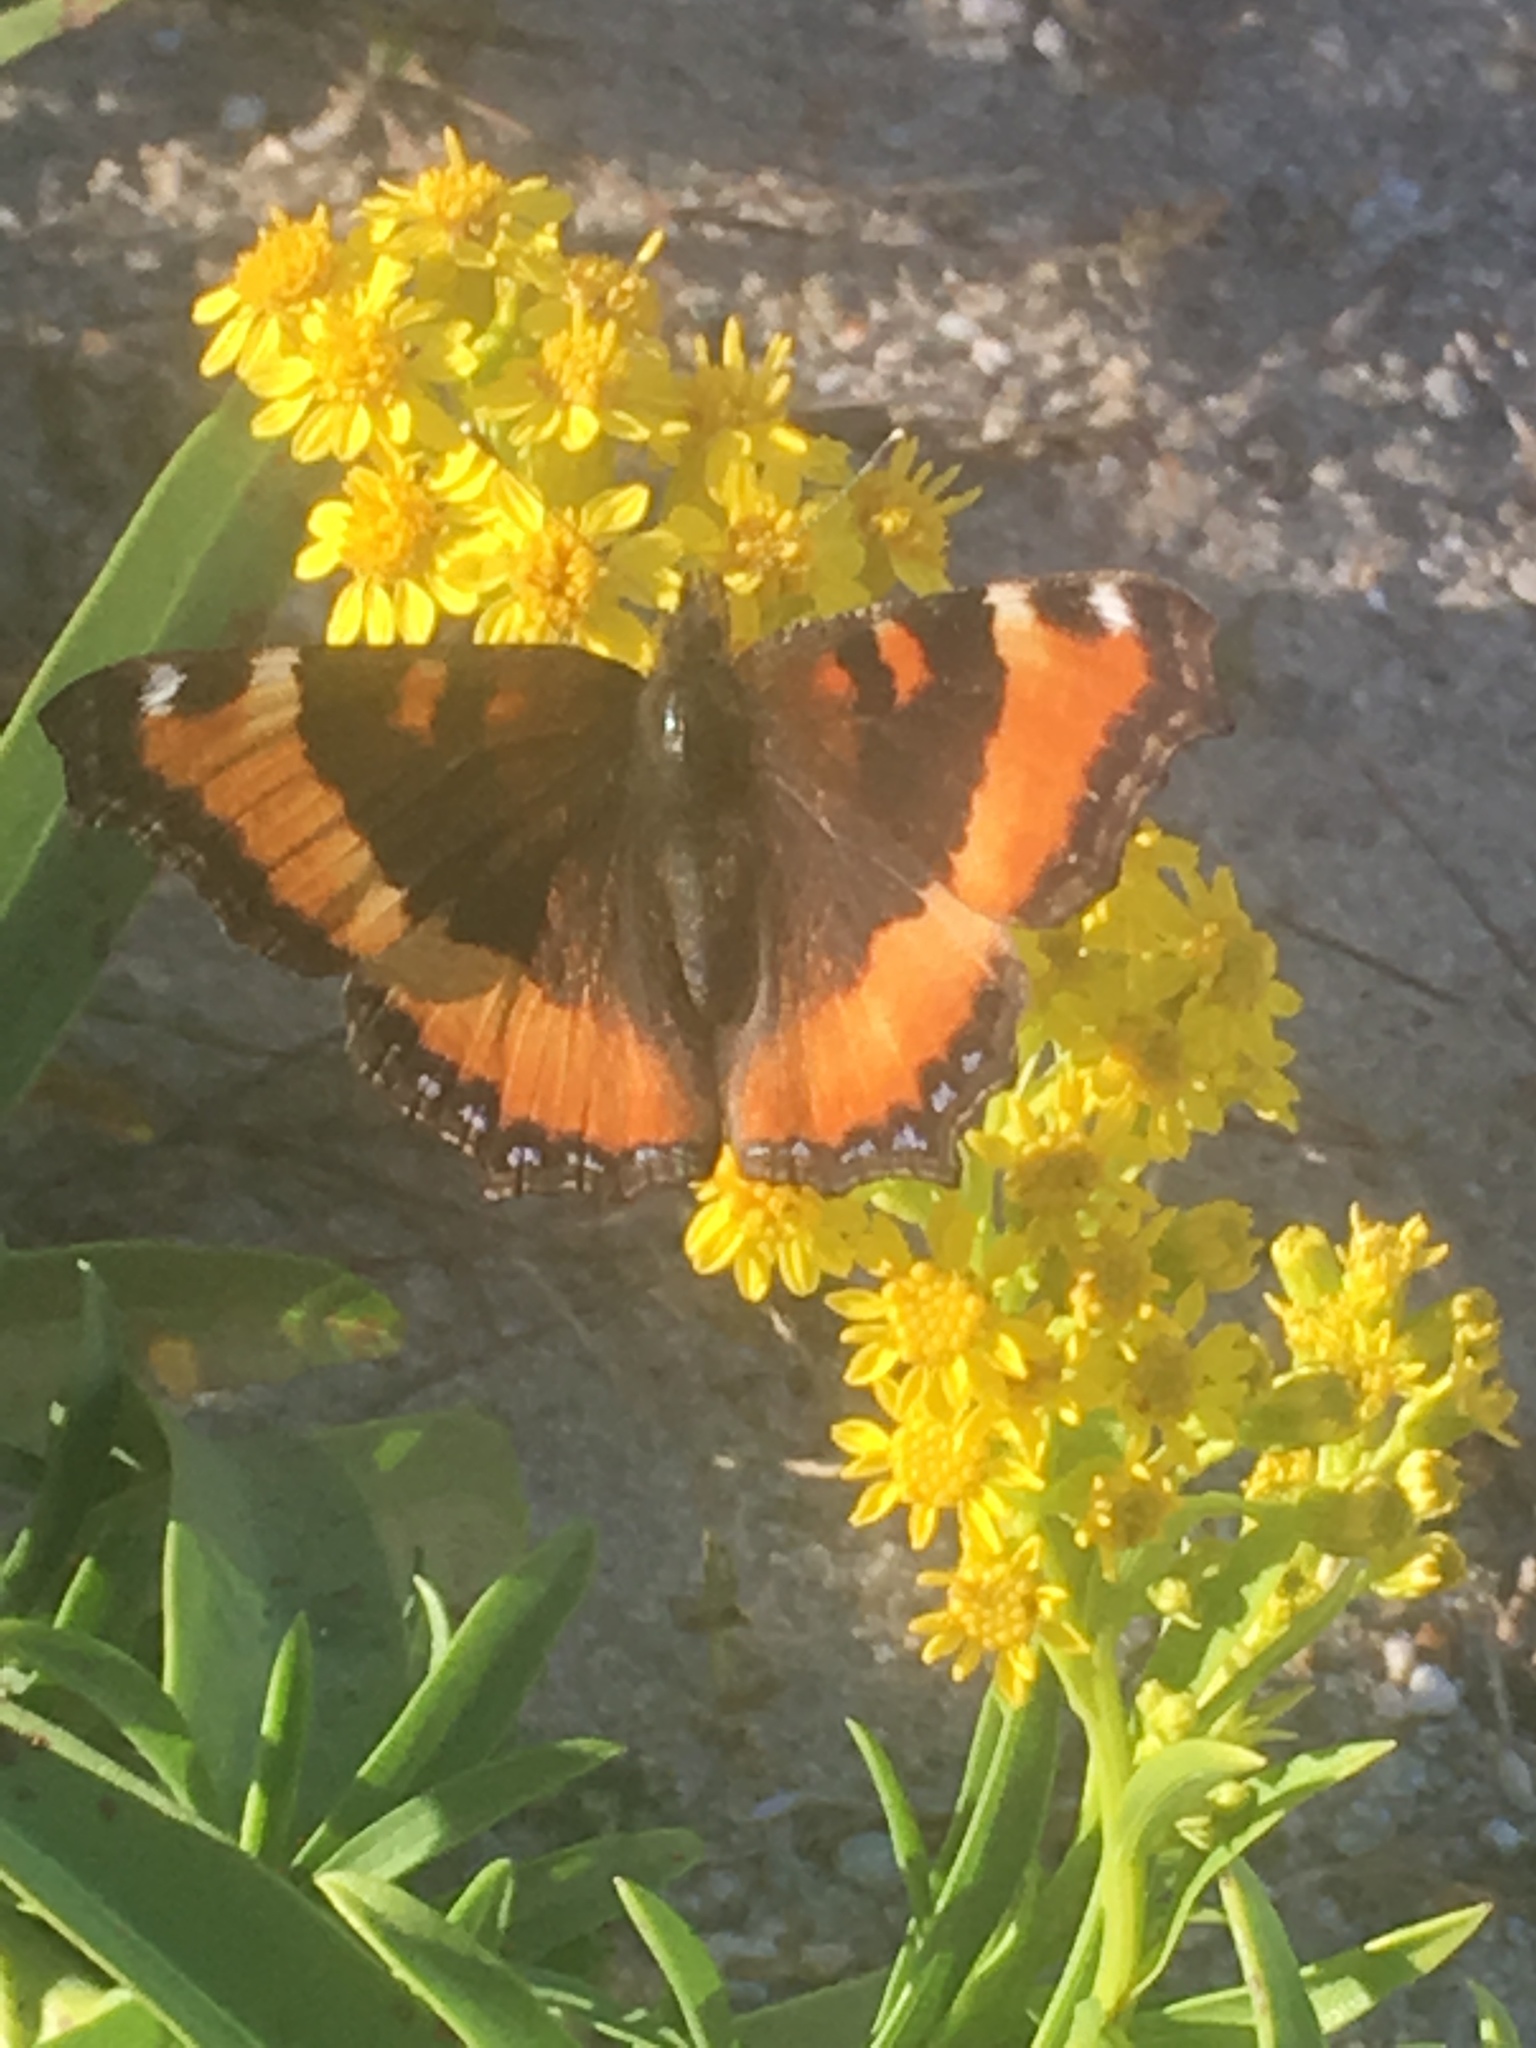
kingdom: Animalia
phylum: Arthropoda
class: Insecta
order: Lepidoptera
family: Nymphalidae
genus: Aglais
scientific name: Aglais milberti
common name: Milbert's tortoiseshell
